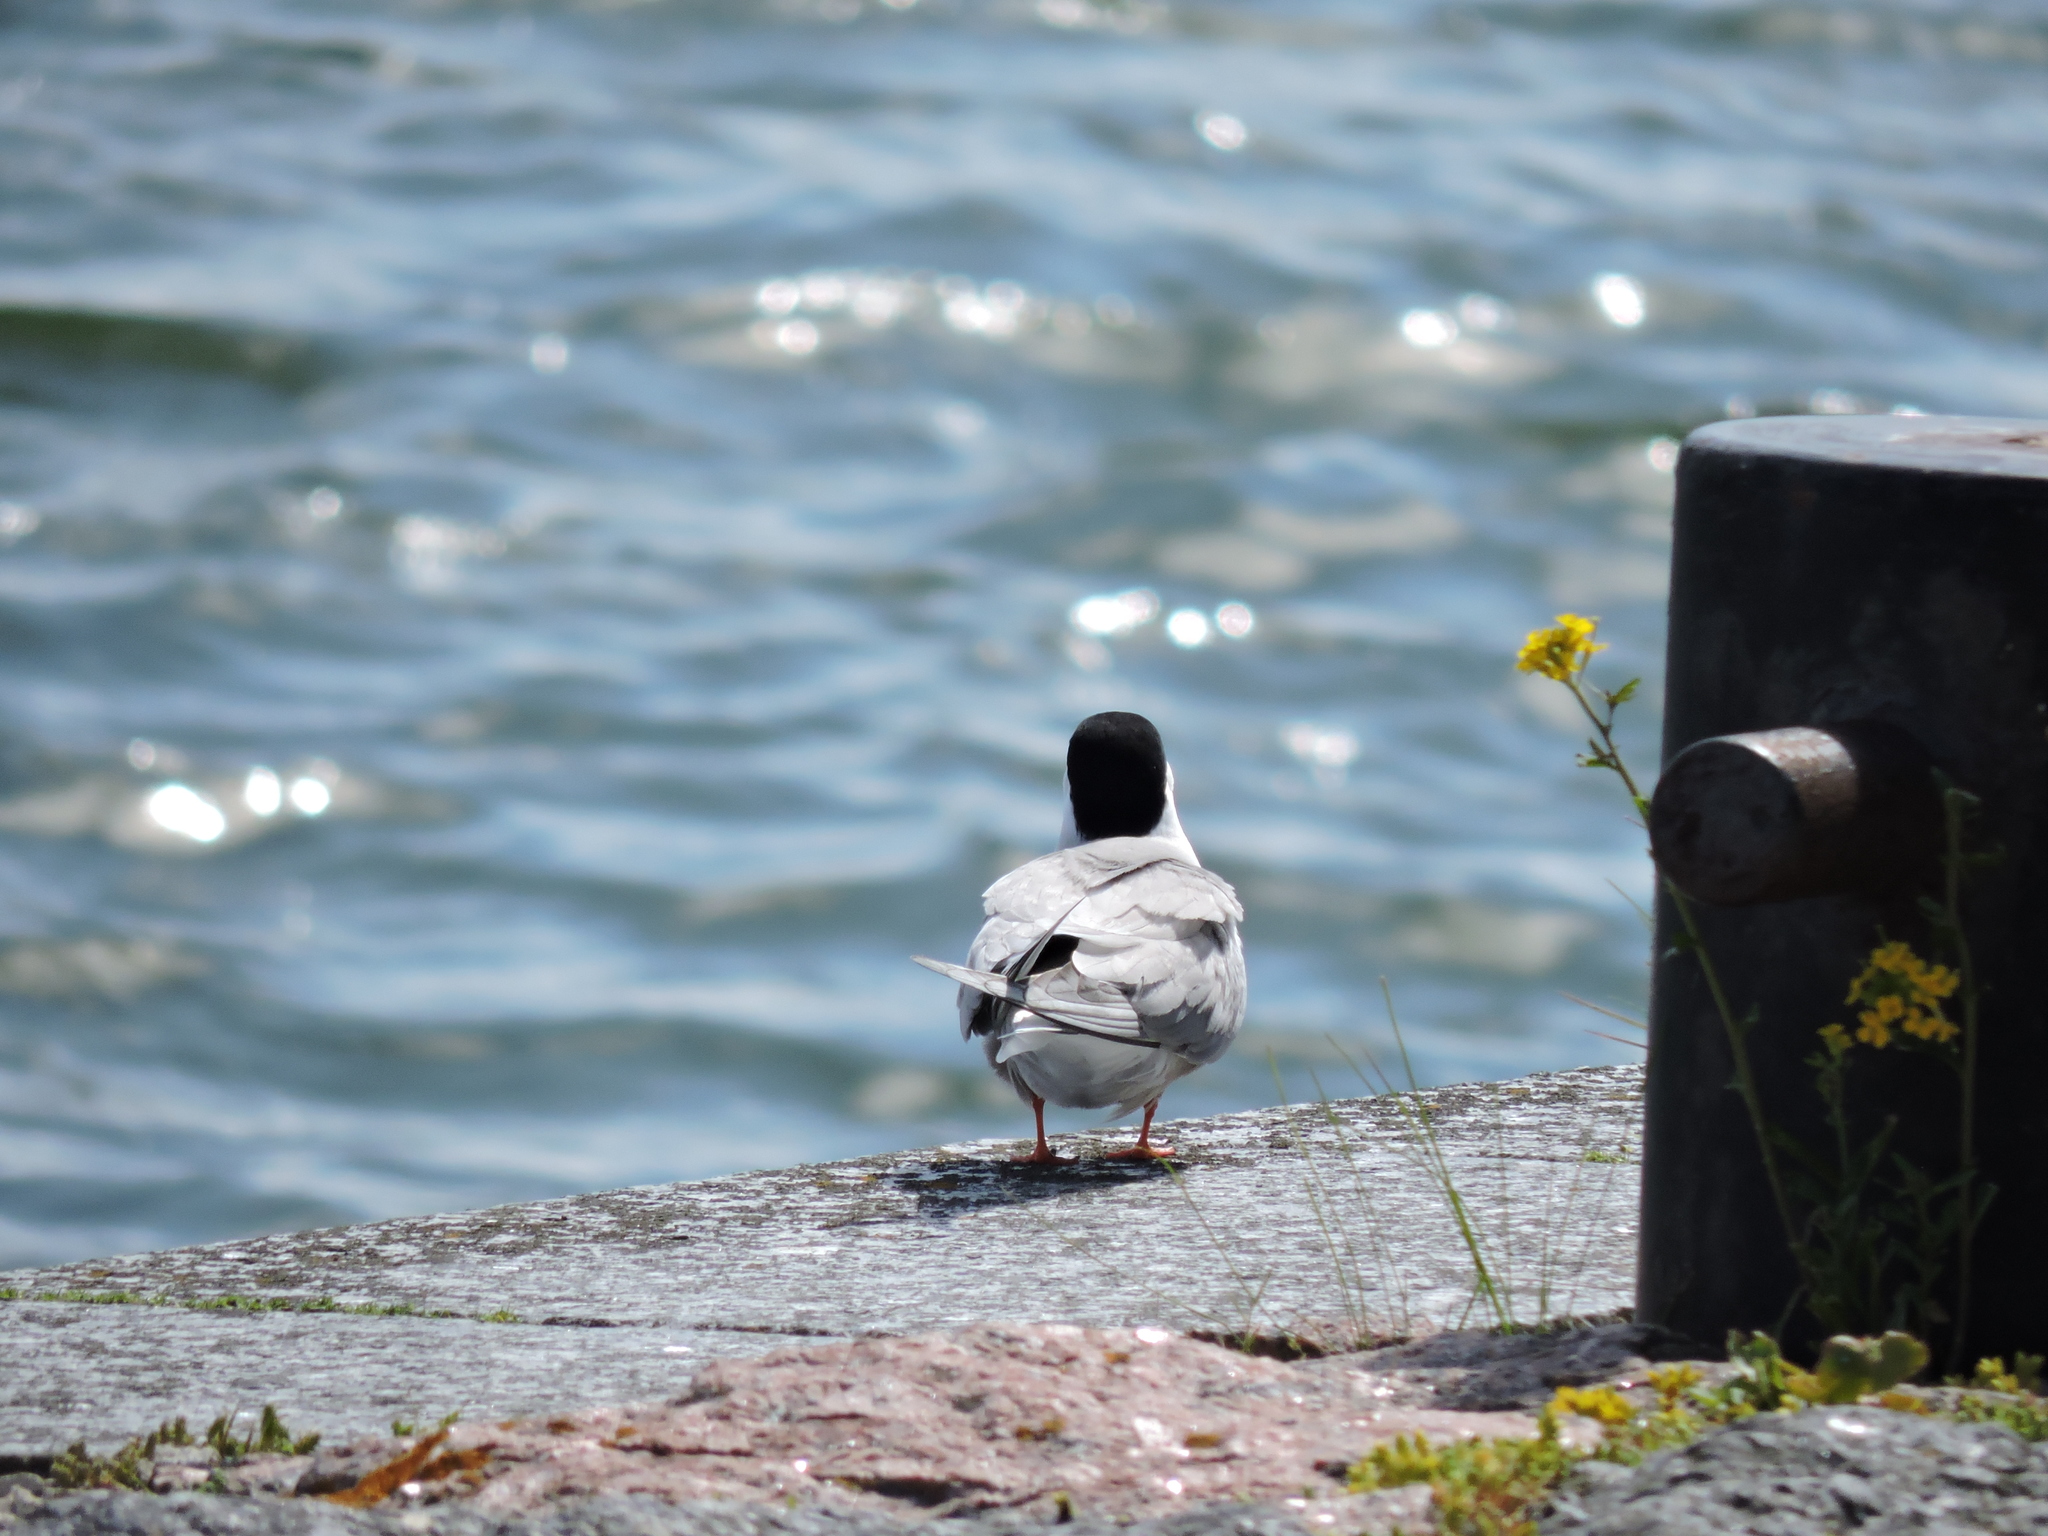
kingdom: Animalia
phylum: Chordata
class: Aves
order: Charadriiformes
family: Laridae
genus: Sterna
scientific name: Sterna hirundo
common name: Common tern
